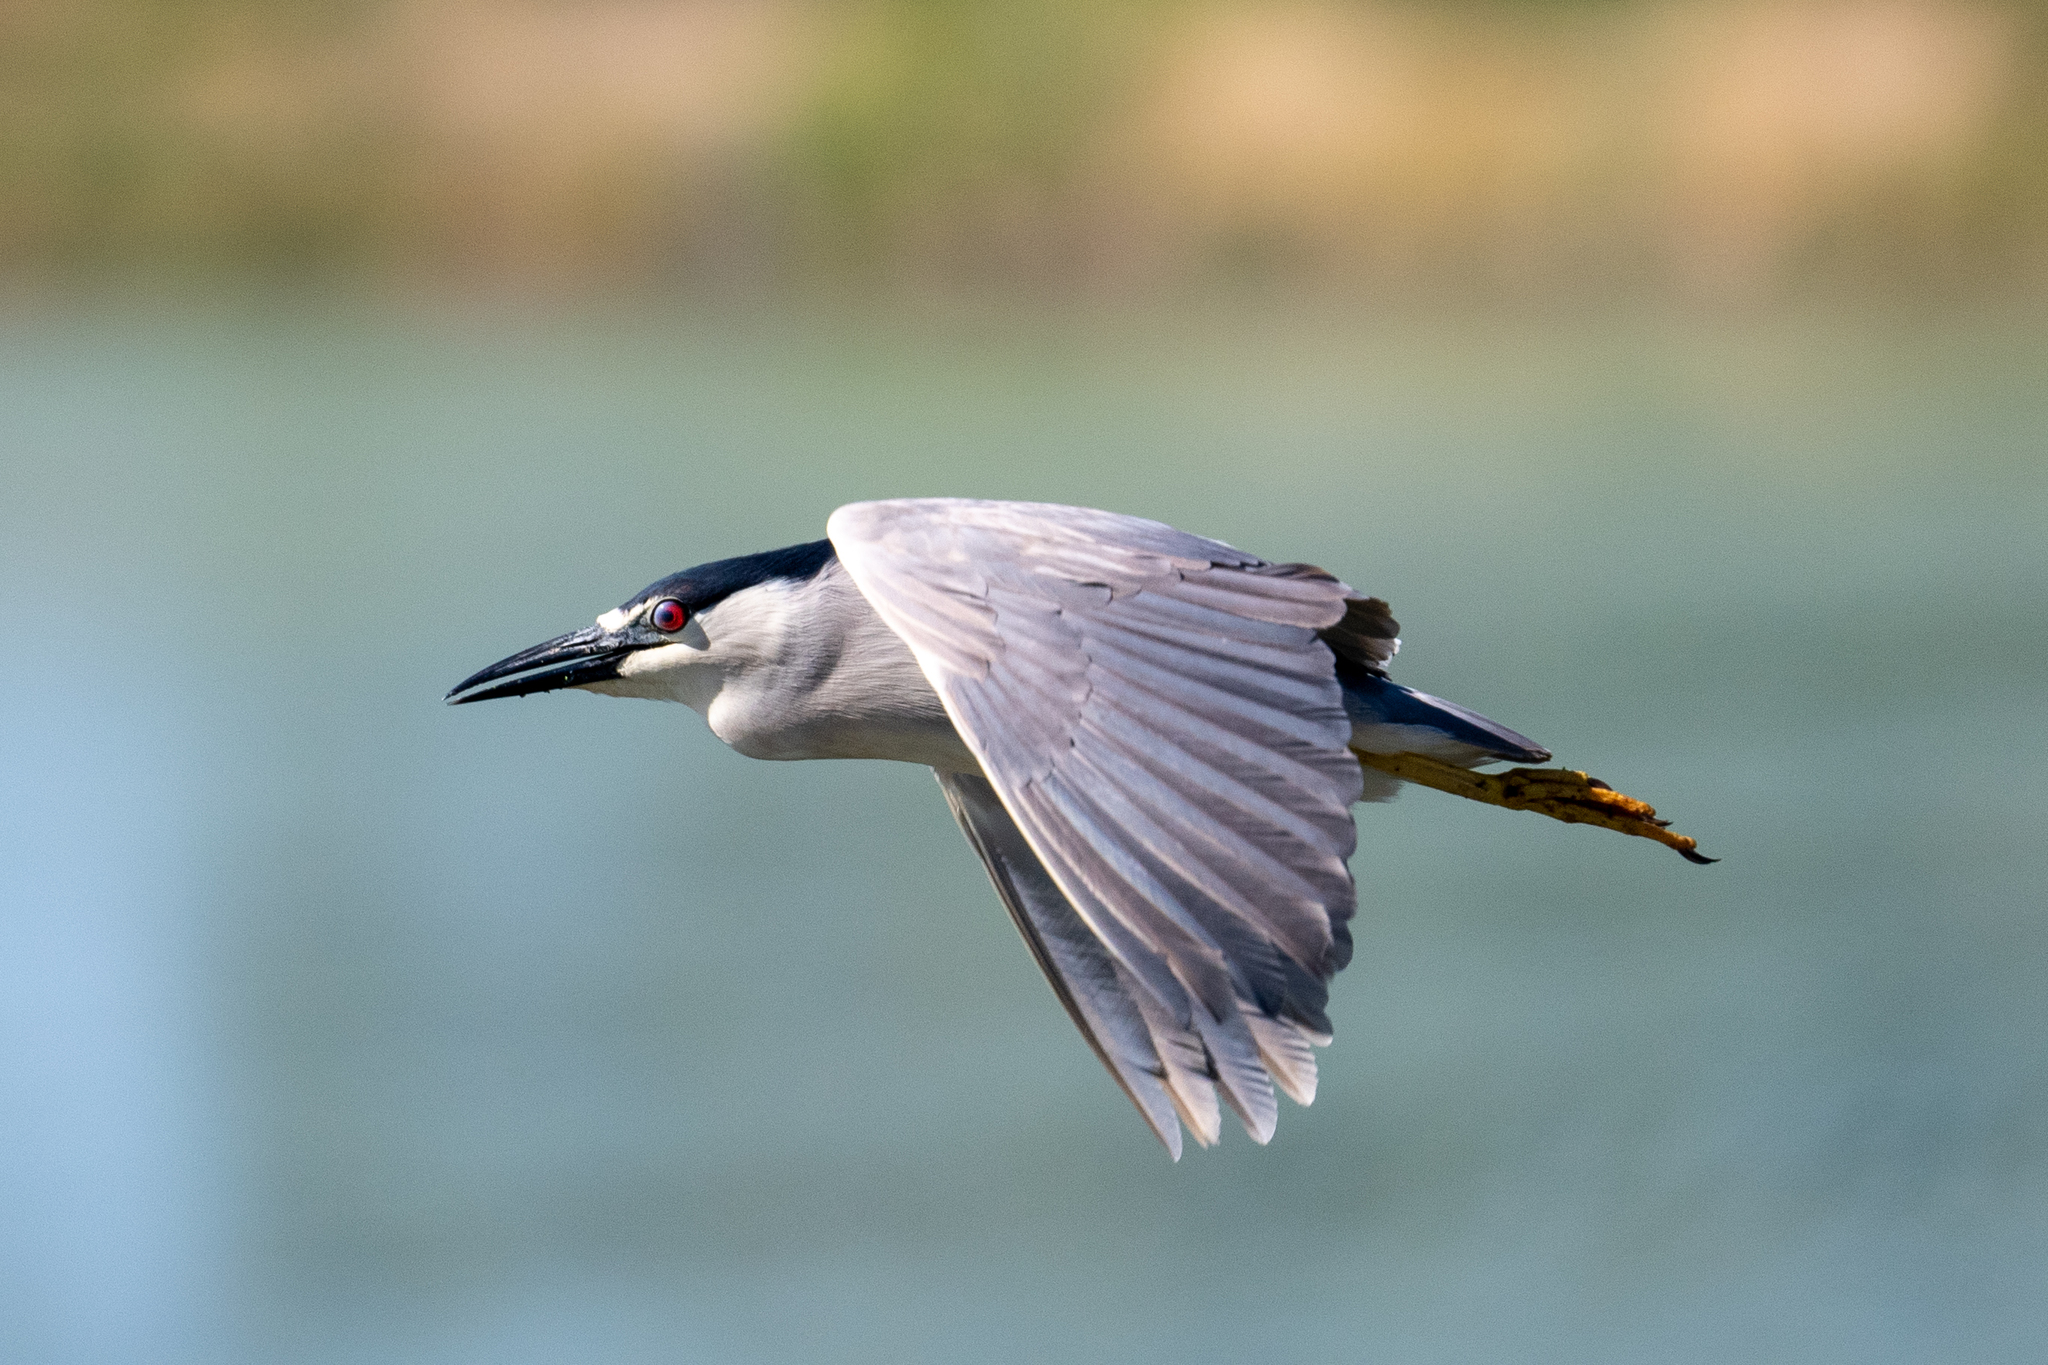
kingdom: Animalia
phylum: Chordata
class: Aves
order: Pelecaniformes
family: Ardeidae
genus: Nycticorax
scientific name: Nycticorax nycticorax
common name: Black-crowned night heron
